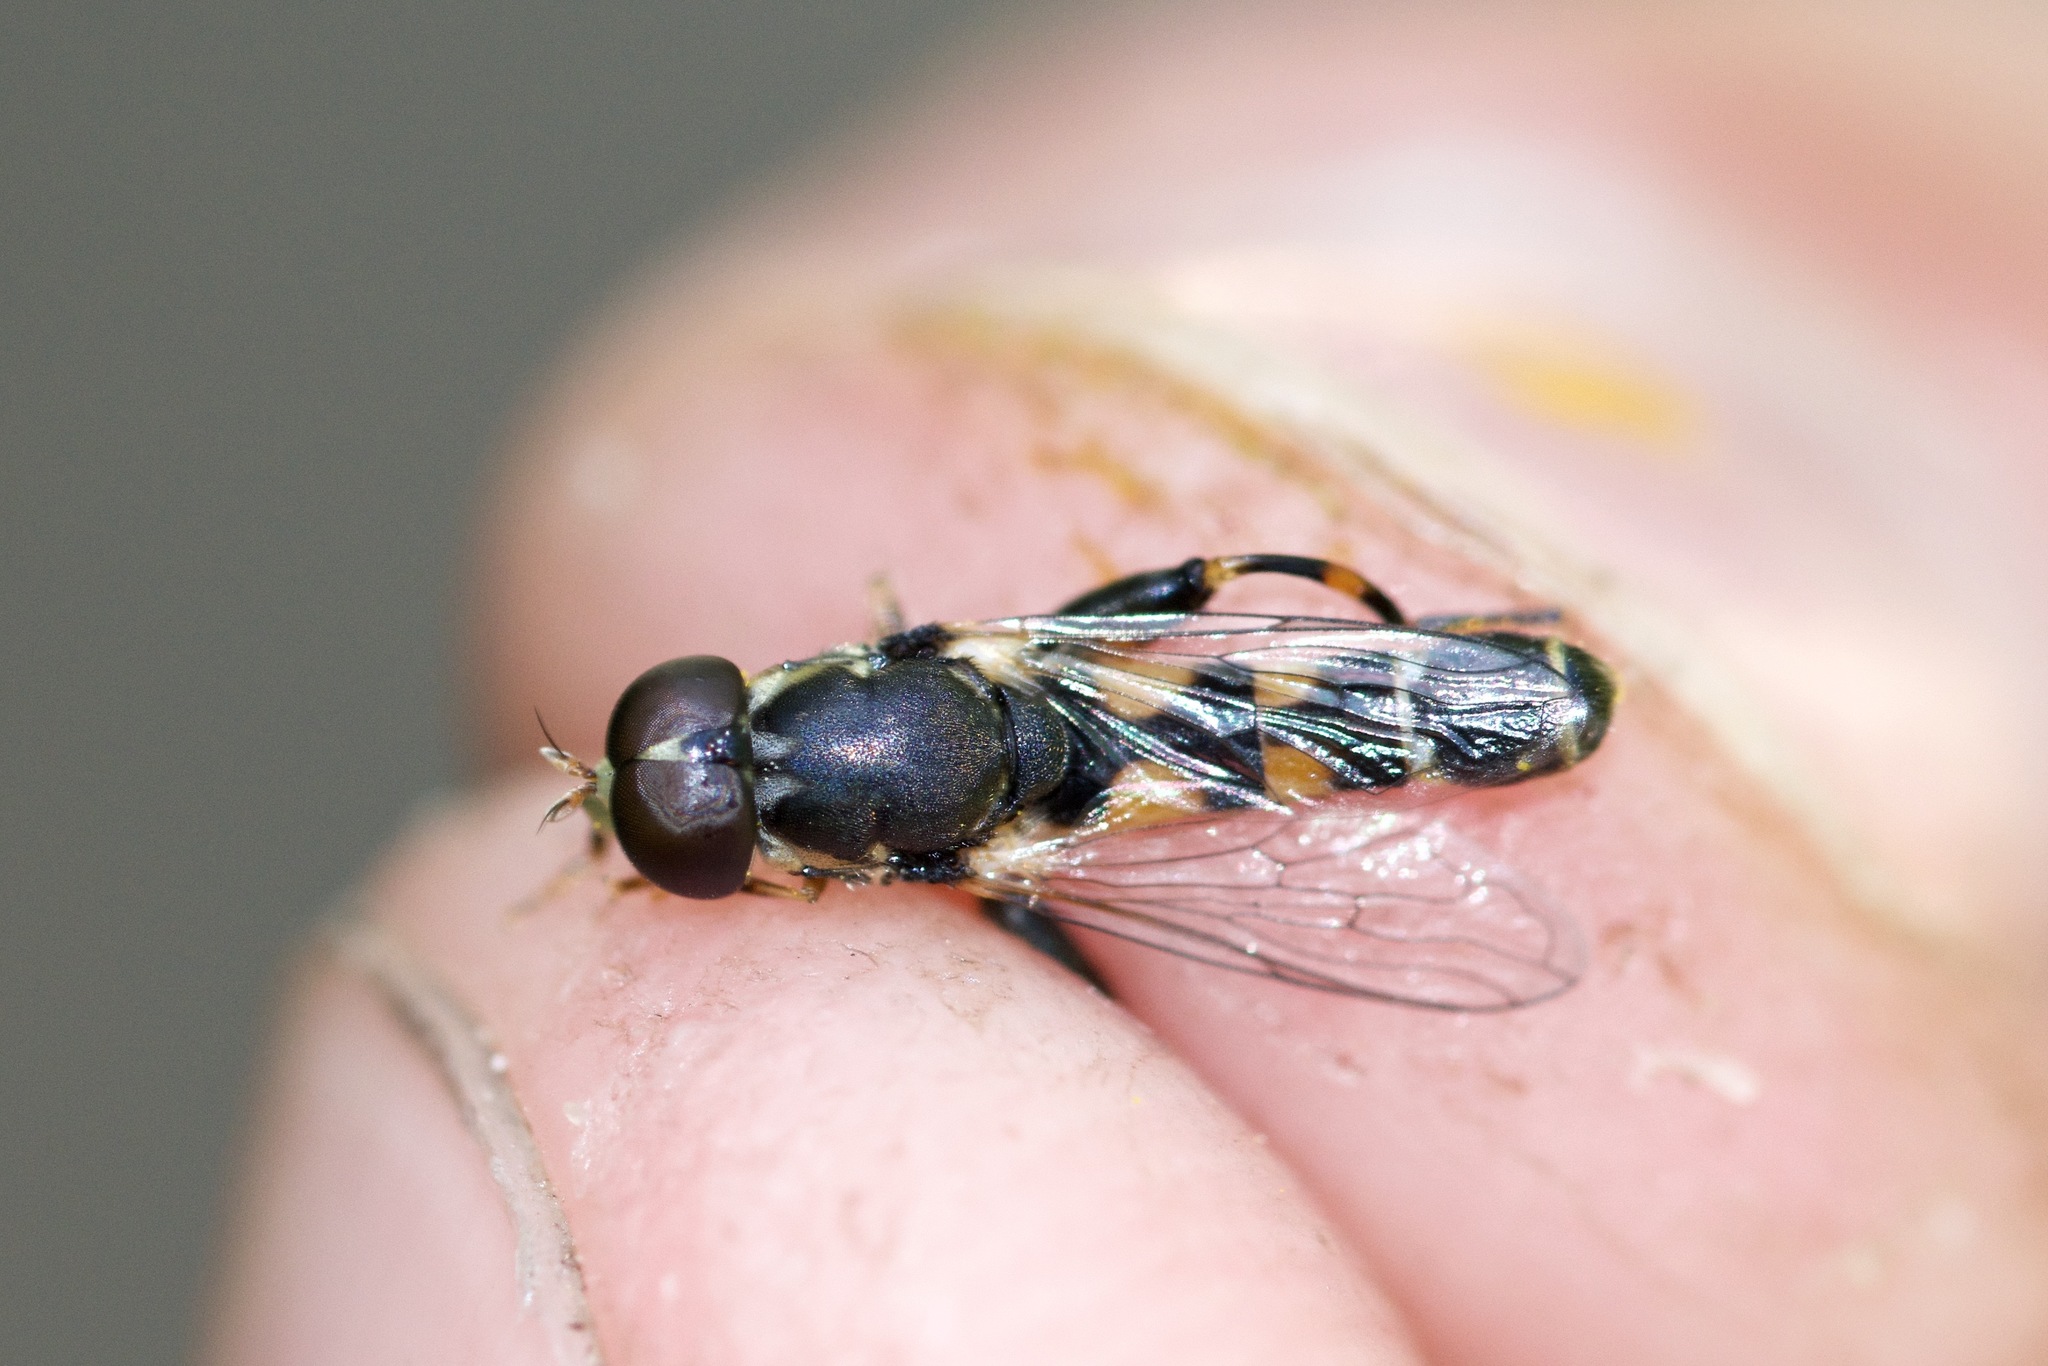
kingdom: Animalia
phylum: Arthropoda
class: Insecta
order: Diptera
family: Syrphidae
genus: Syritta
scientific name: Syritta pipiens
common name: Hover fly
